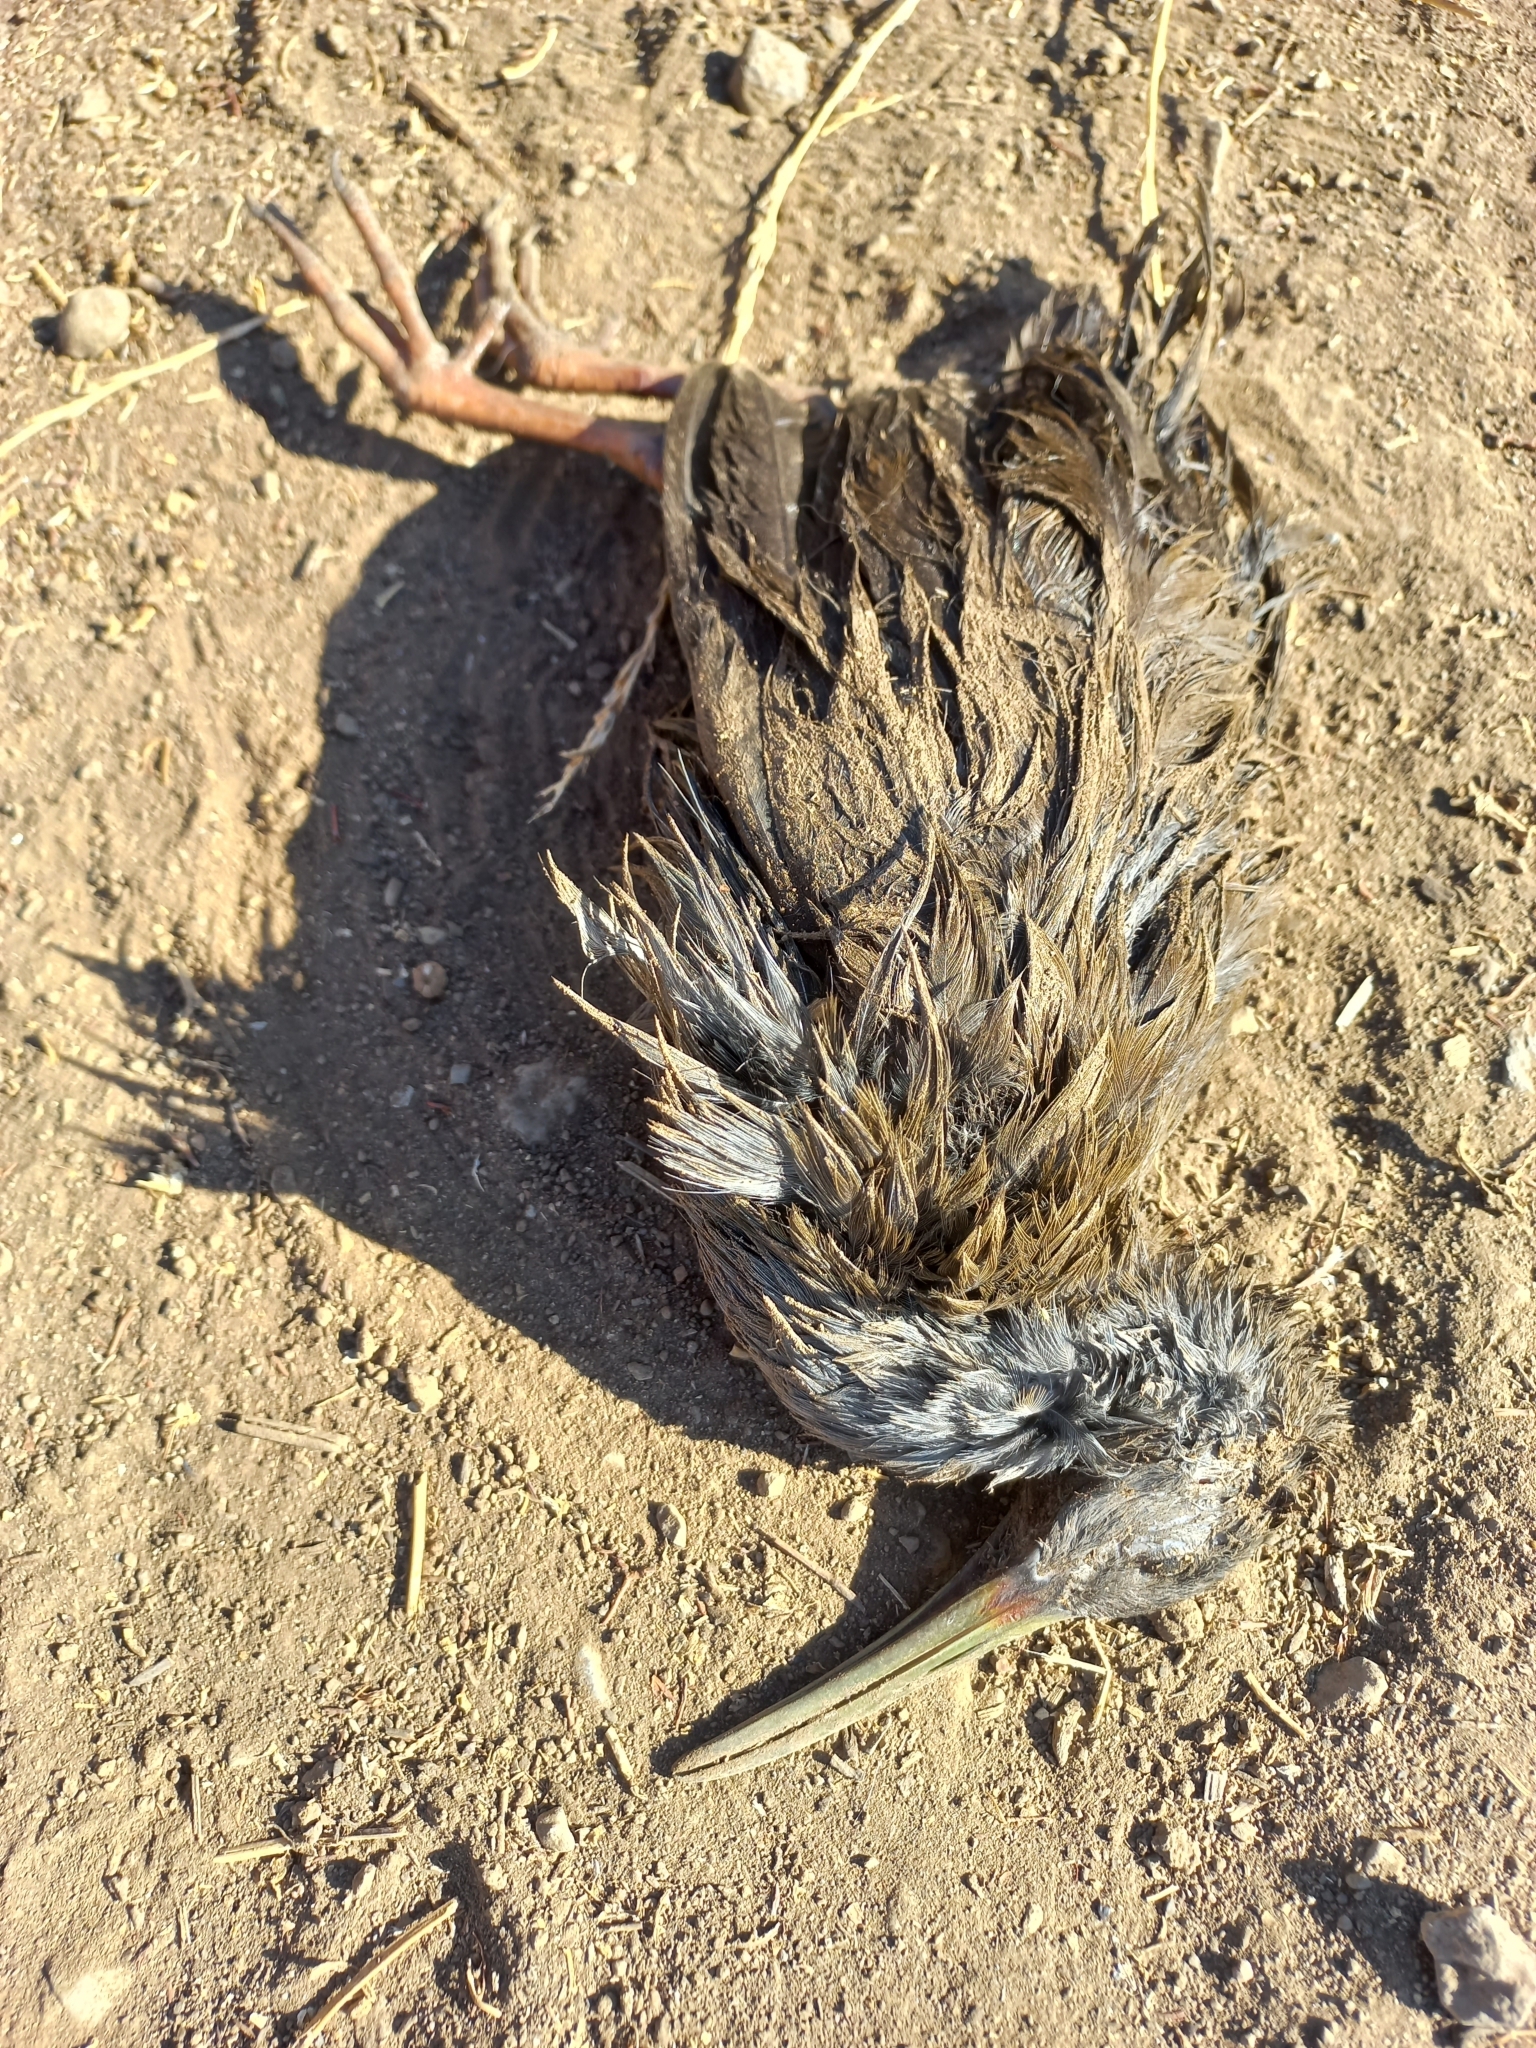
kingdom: Animalia
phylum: Chordata
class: Aves
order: Gruiformes
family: Rallidae
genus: Pardirallus
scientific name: Pardirallus sanguinolentus
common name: Plumbeous rail
